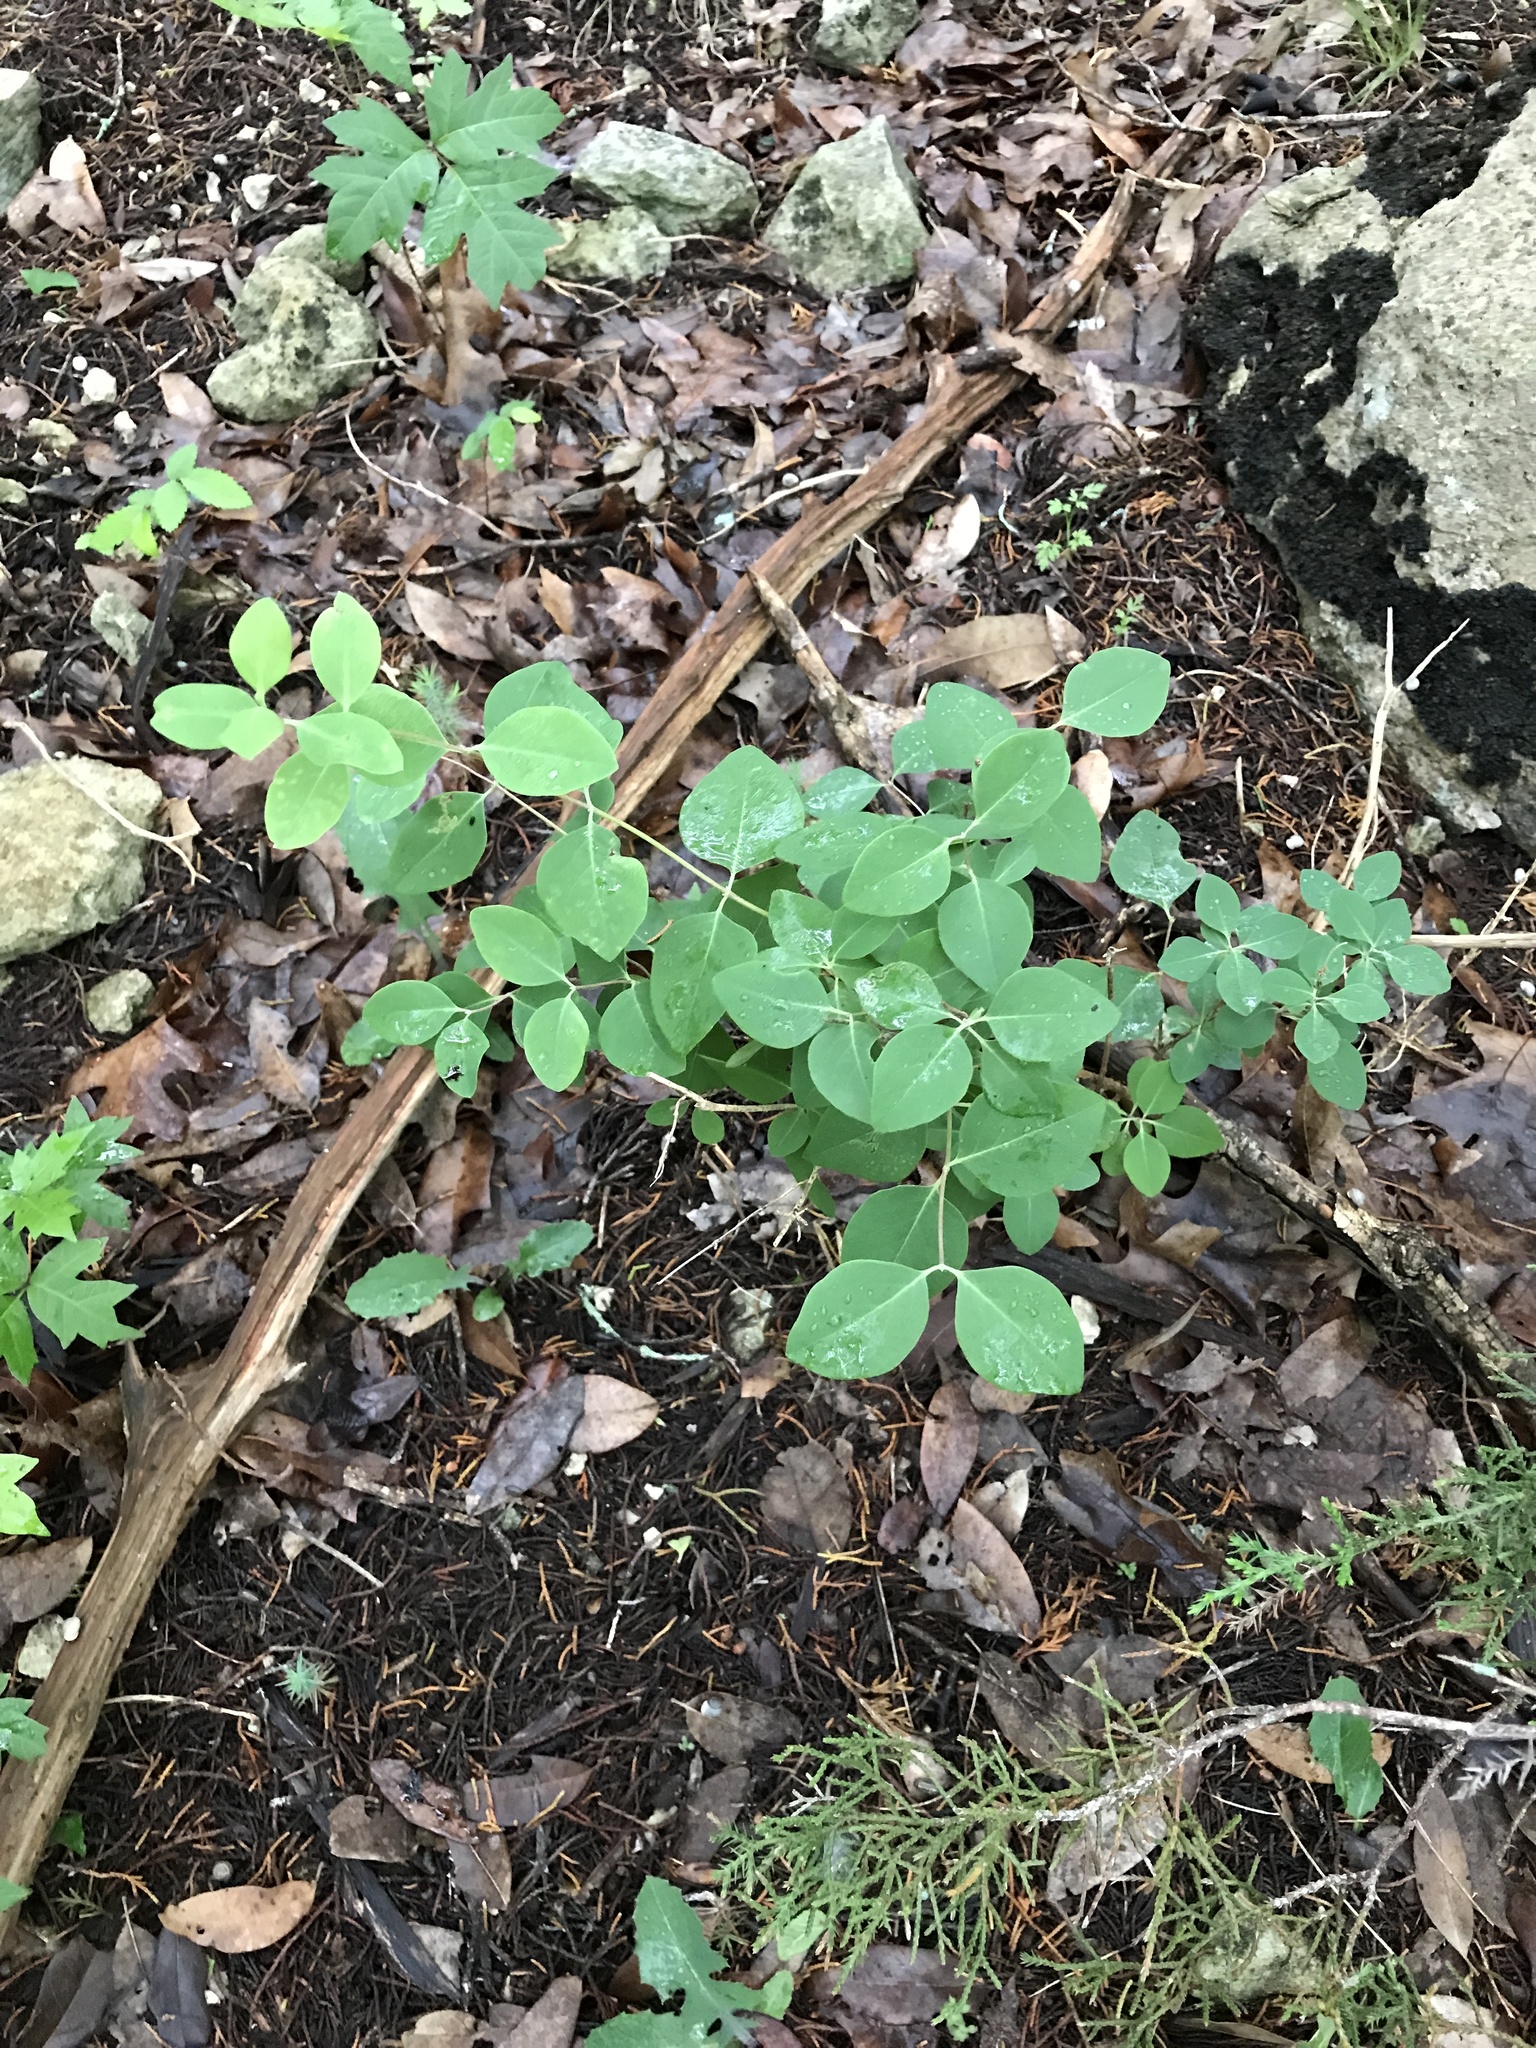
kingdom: Plantae
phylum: Tracheophyta
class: Magnoliopsida
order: Dipsacales
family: Caprifoliaceae
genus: Lonicera
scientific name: Lonicera albiflora
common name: White honeysuckle
